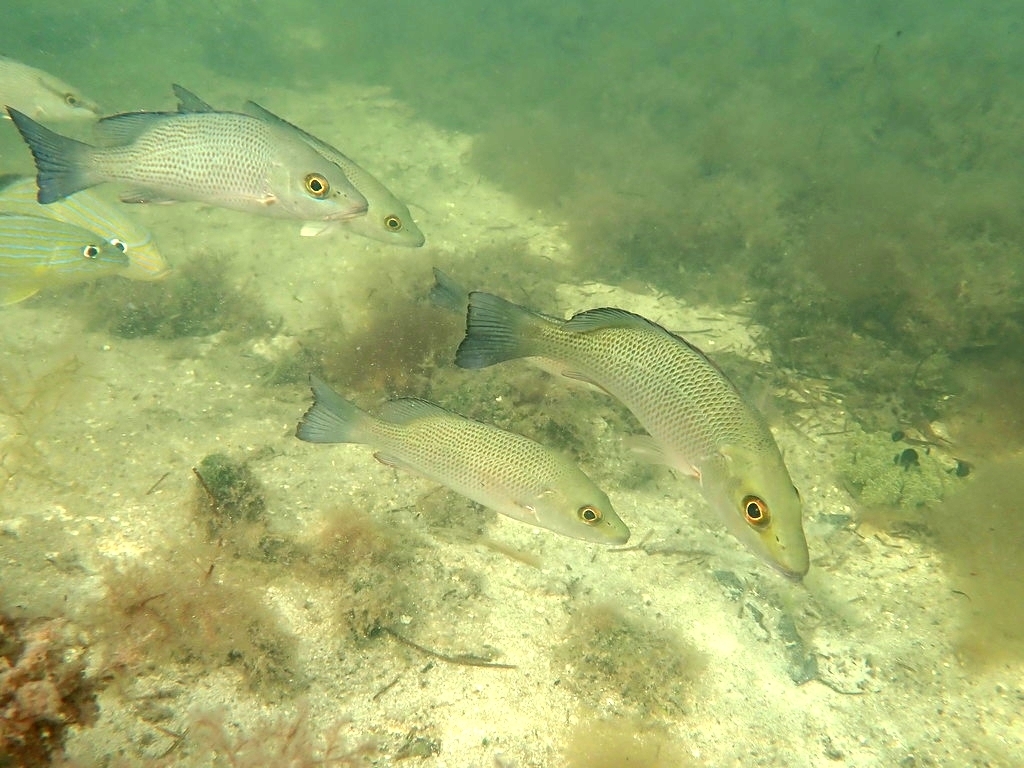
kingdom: Animalia
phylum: Chordata
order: Perciformes
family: Lutjanidae
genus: Lutjanus
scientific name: Lutjanus griseus
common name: Gray snapper
